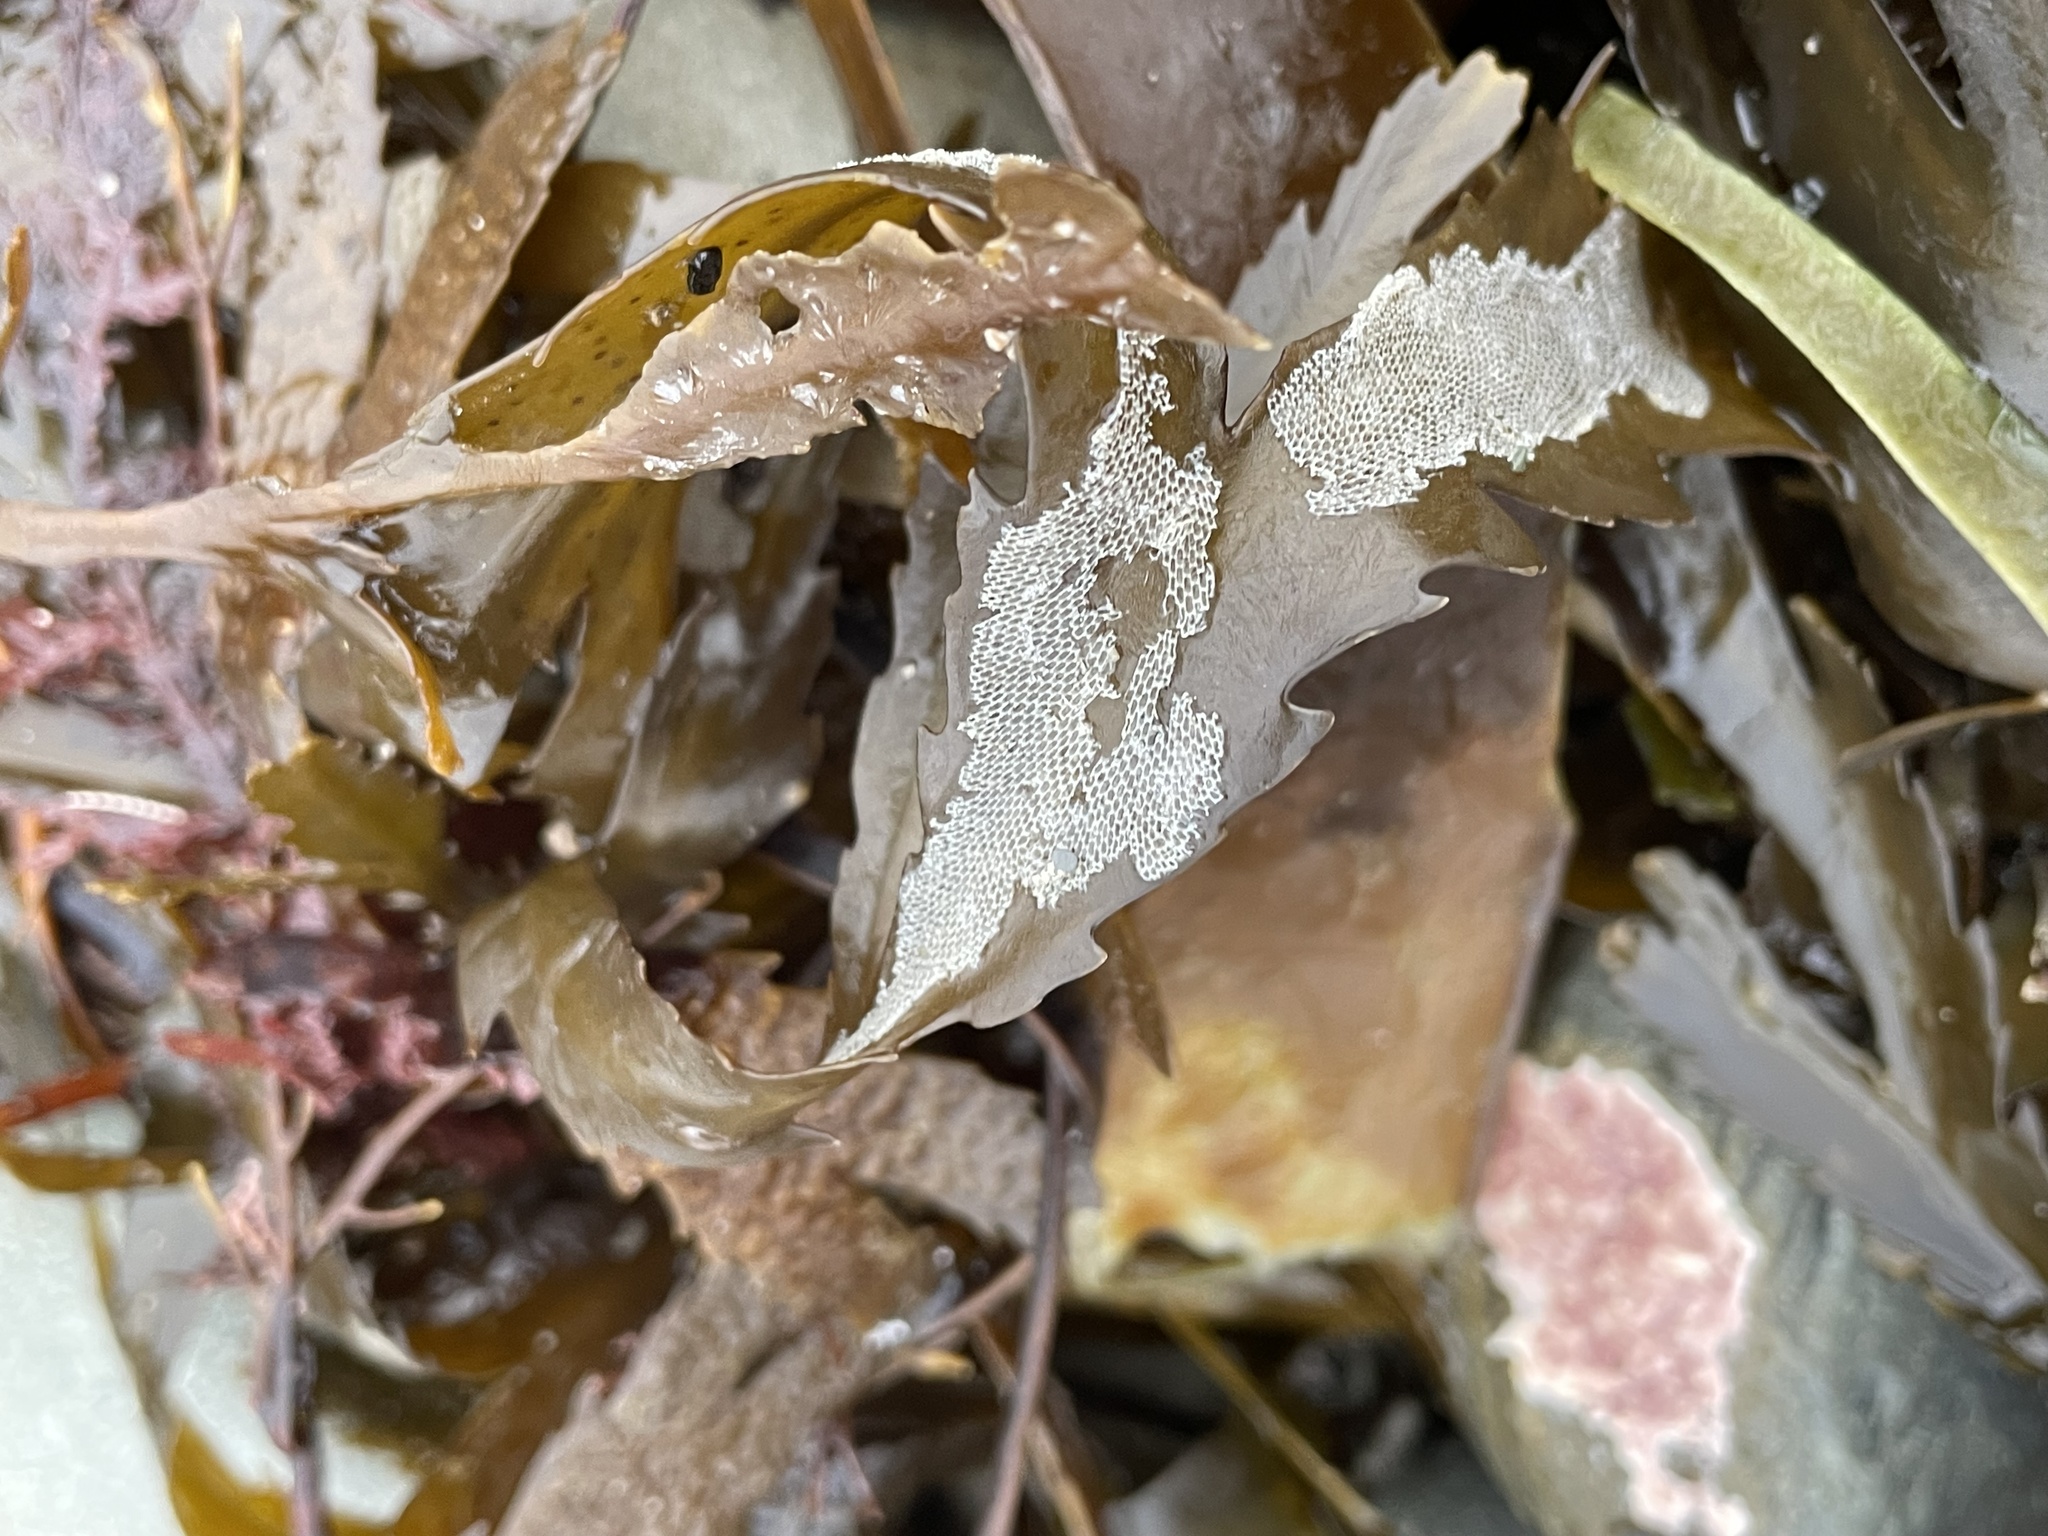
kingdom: Animalia
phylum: Bryozoa
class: Gymnolaemata
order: Cheilostomatida
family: Membraniporidae
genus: Membranipora
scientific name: Membranipora membranacea
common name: Sea mat
